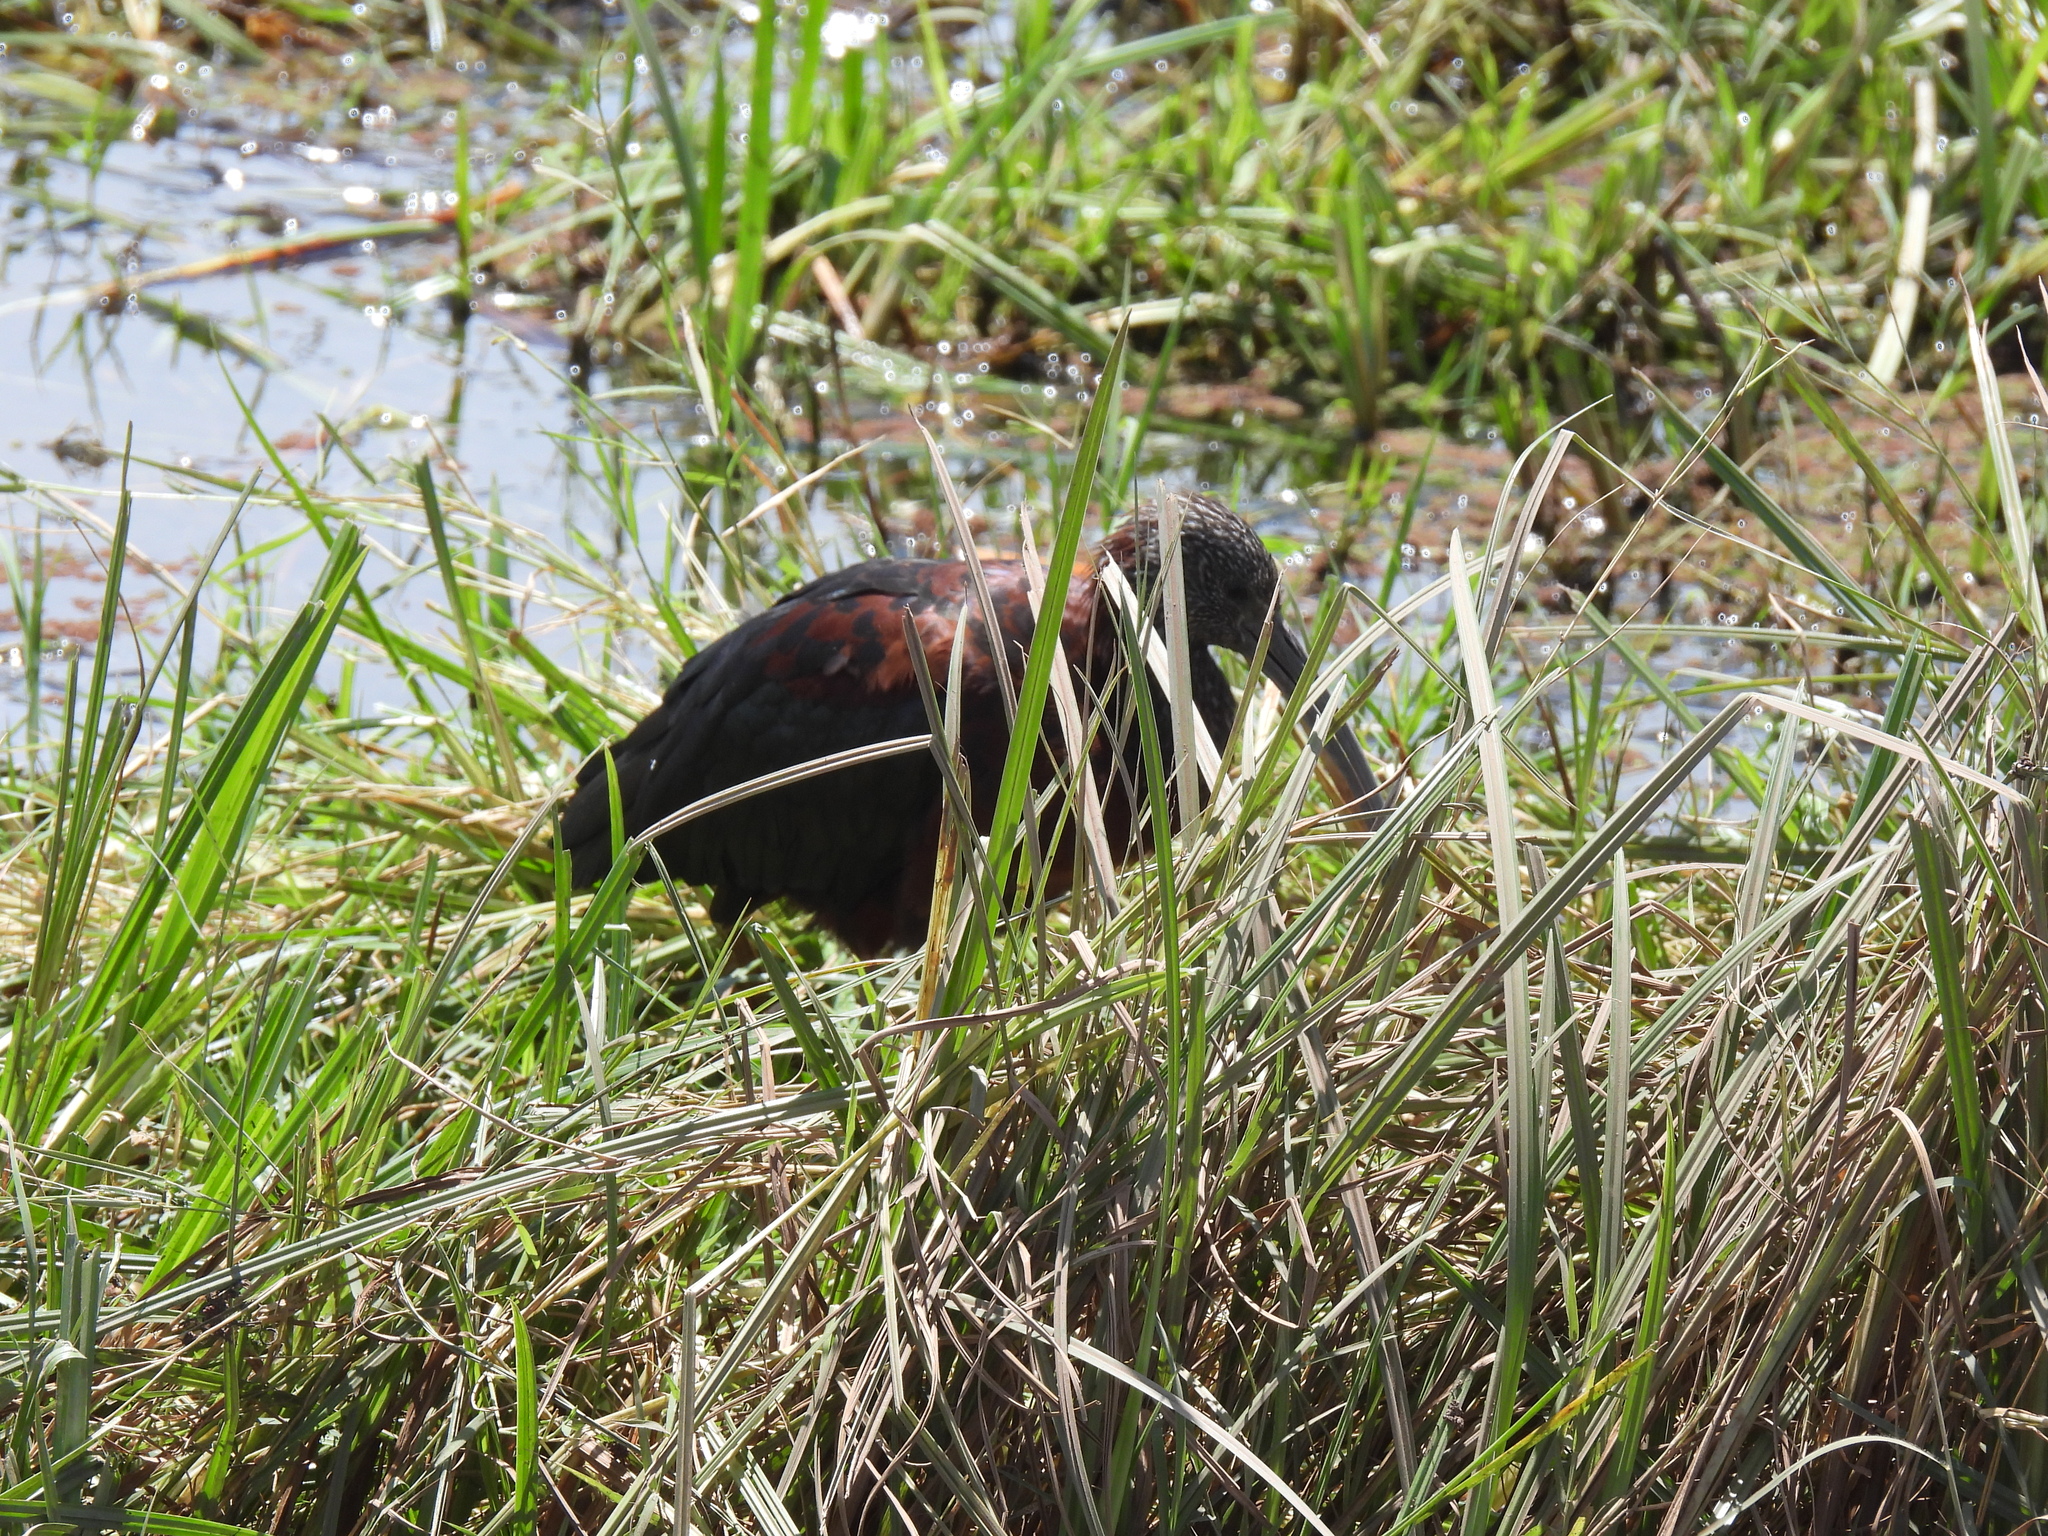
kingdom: Animalia
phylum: Chordata
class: Aves
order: Pelecaniformes
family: Threskiornithidae
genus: Plegadis
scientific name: Plegadis falcinellus
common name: Glossy ibis
